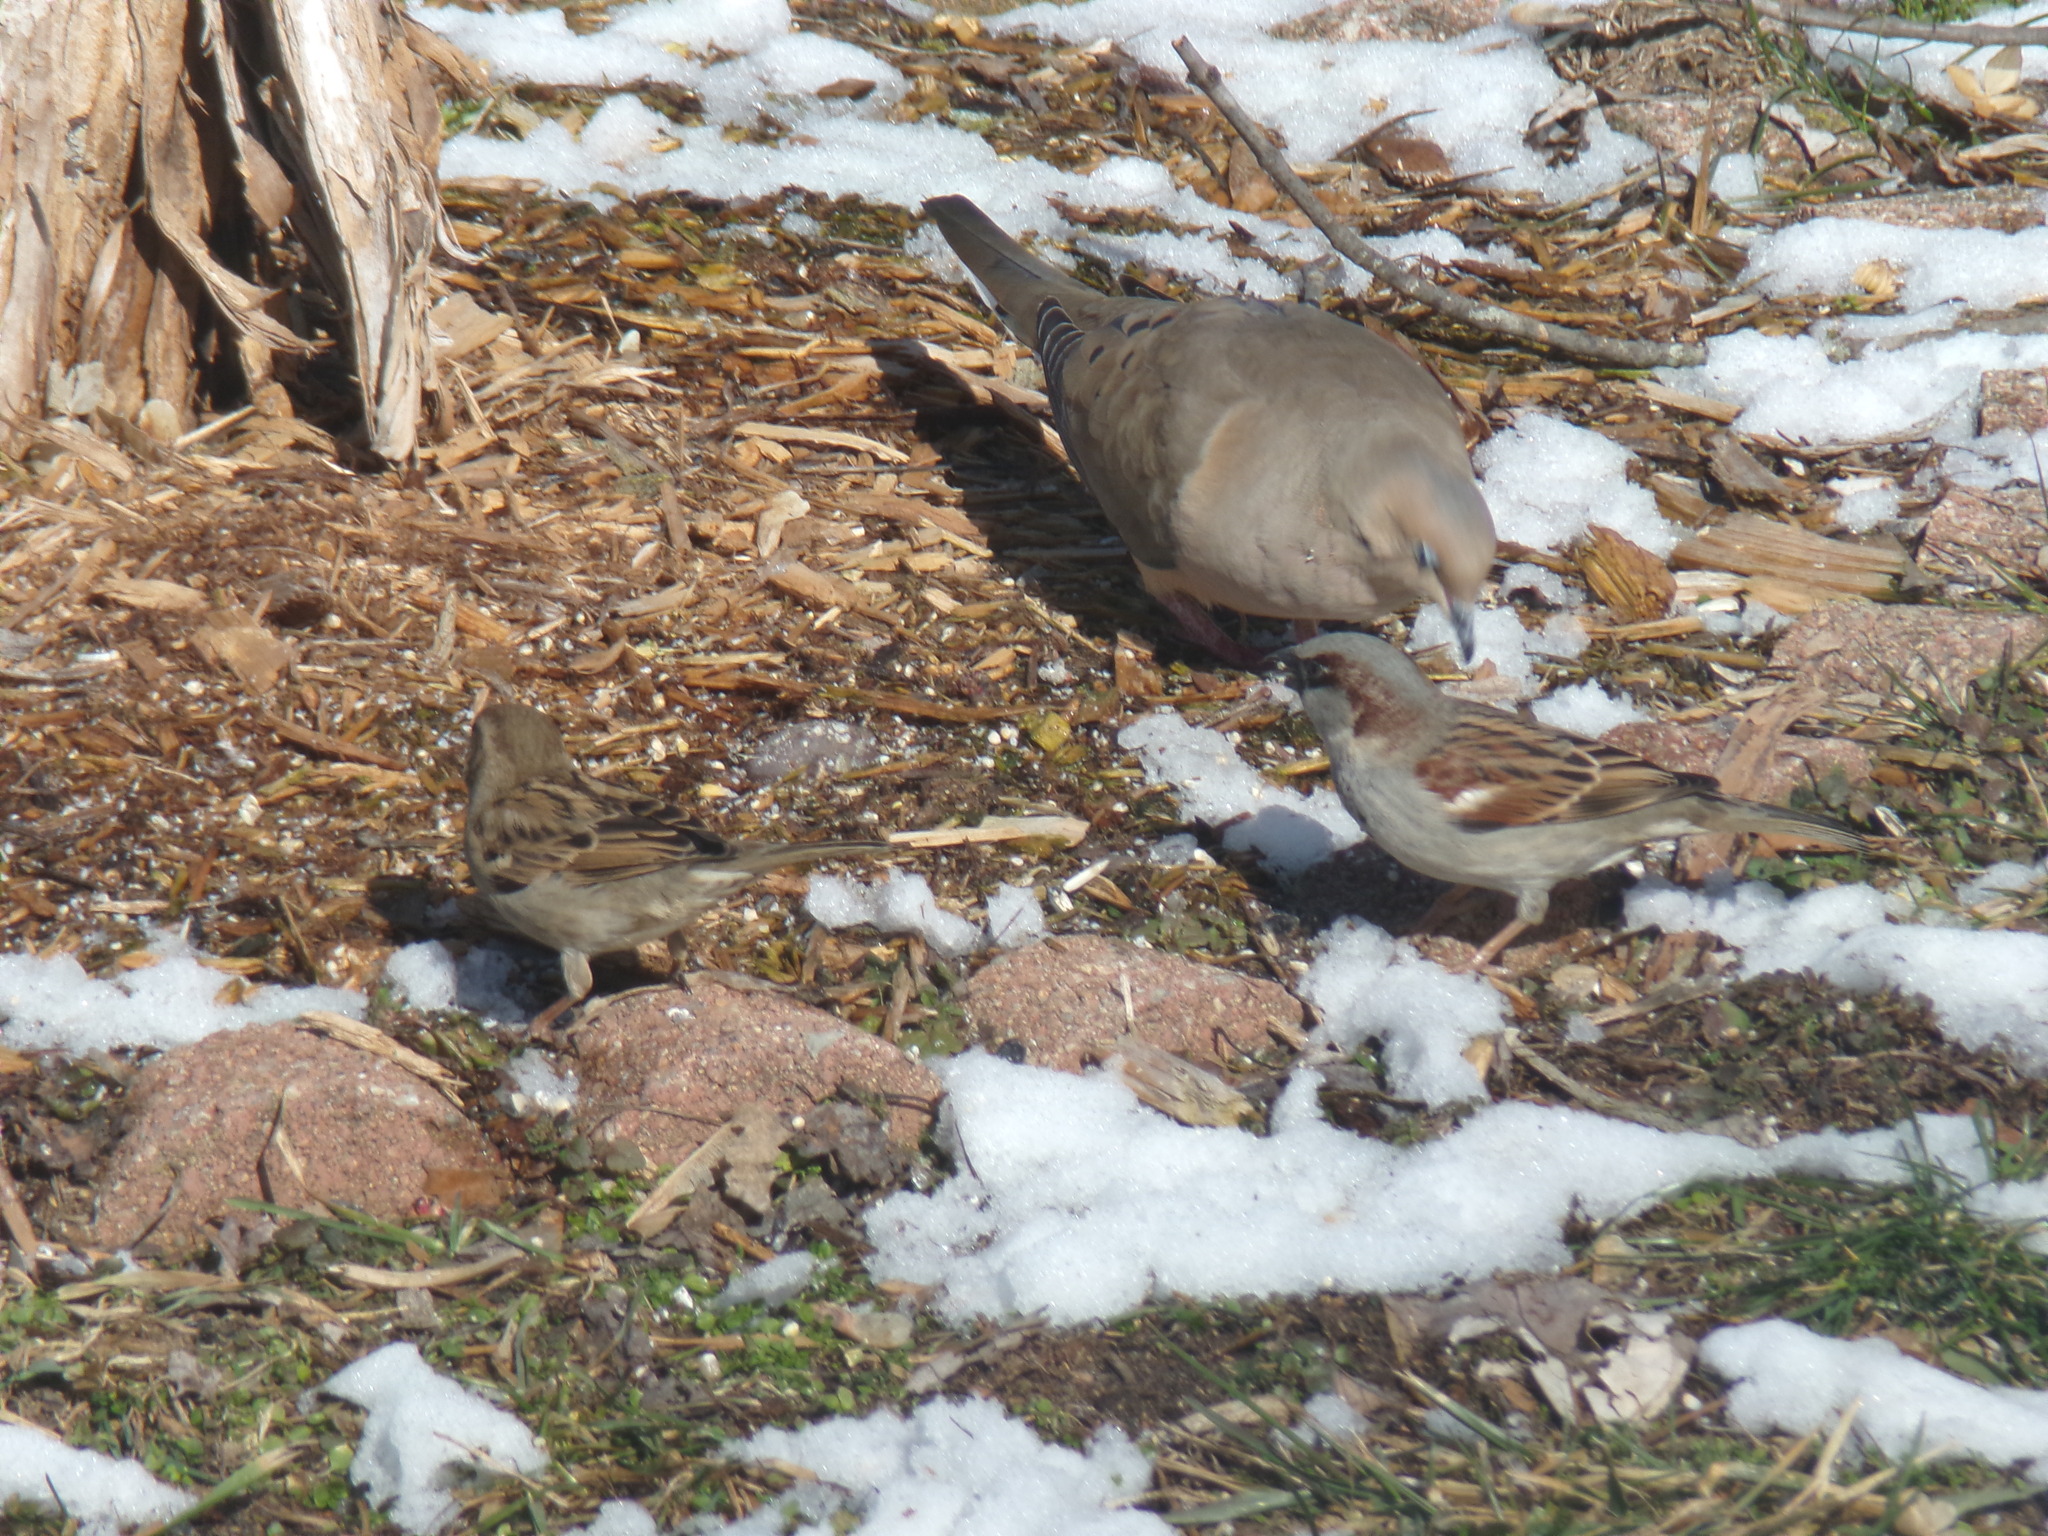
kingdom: Animalia
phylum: Chordata
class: Aves
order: Columbiformes
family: Columbidae
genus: Zenaida
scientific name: Zenaida macroura
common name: Mourning dove
